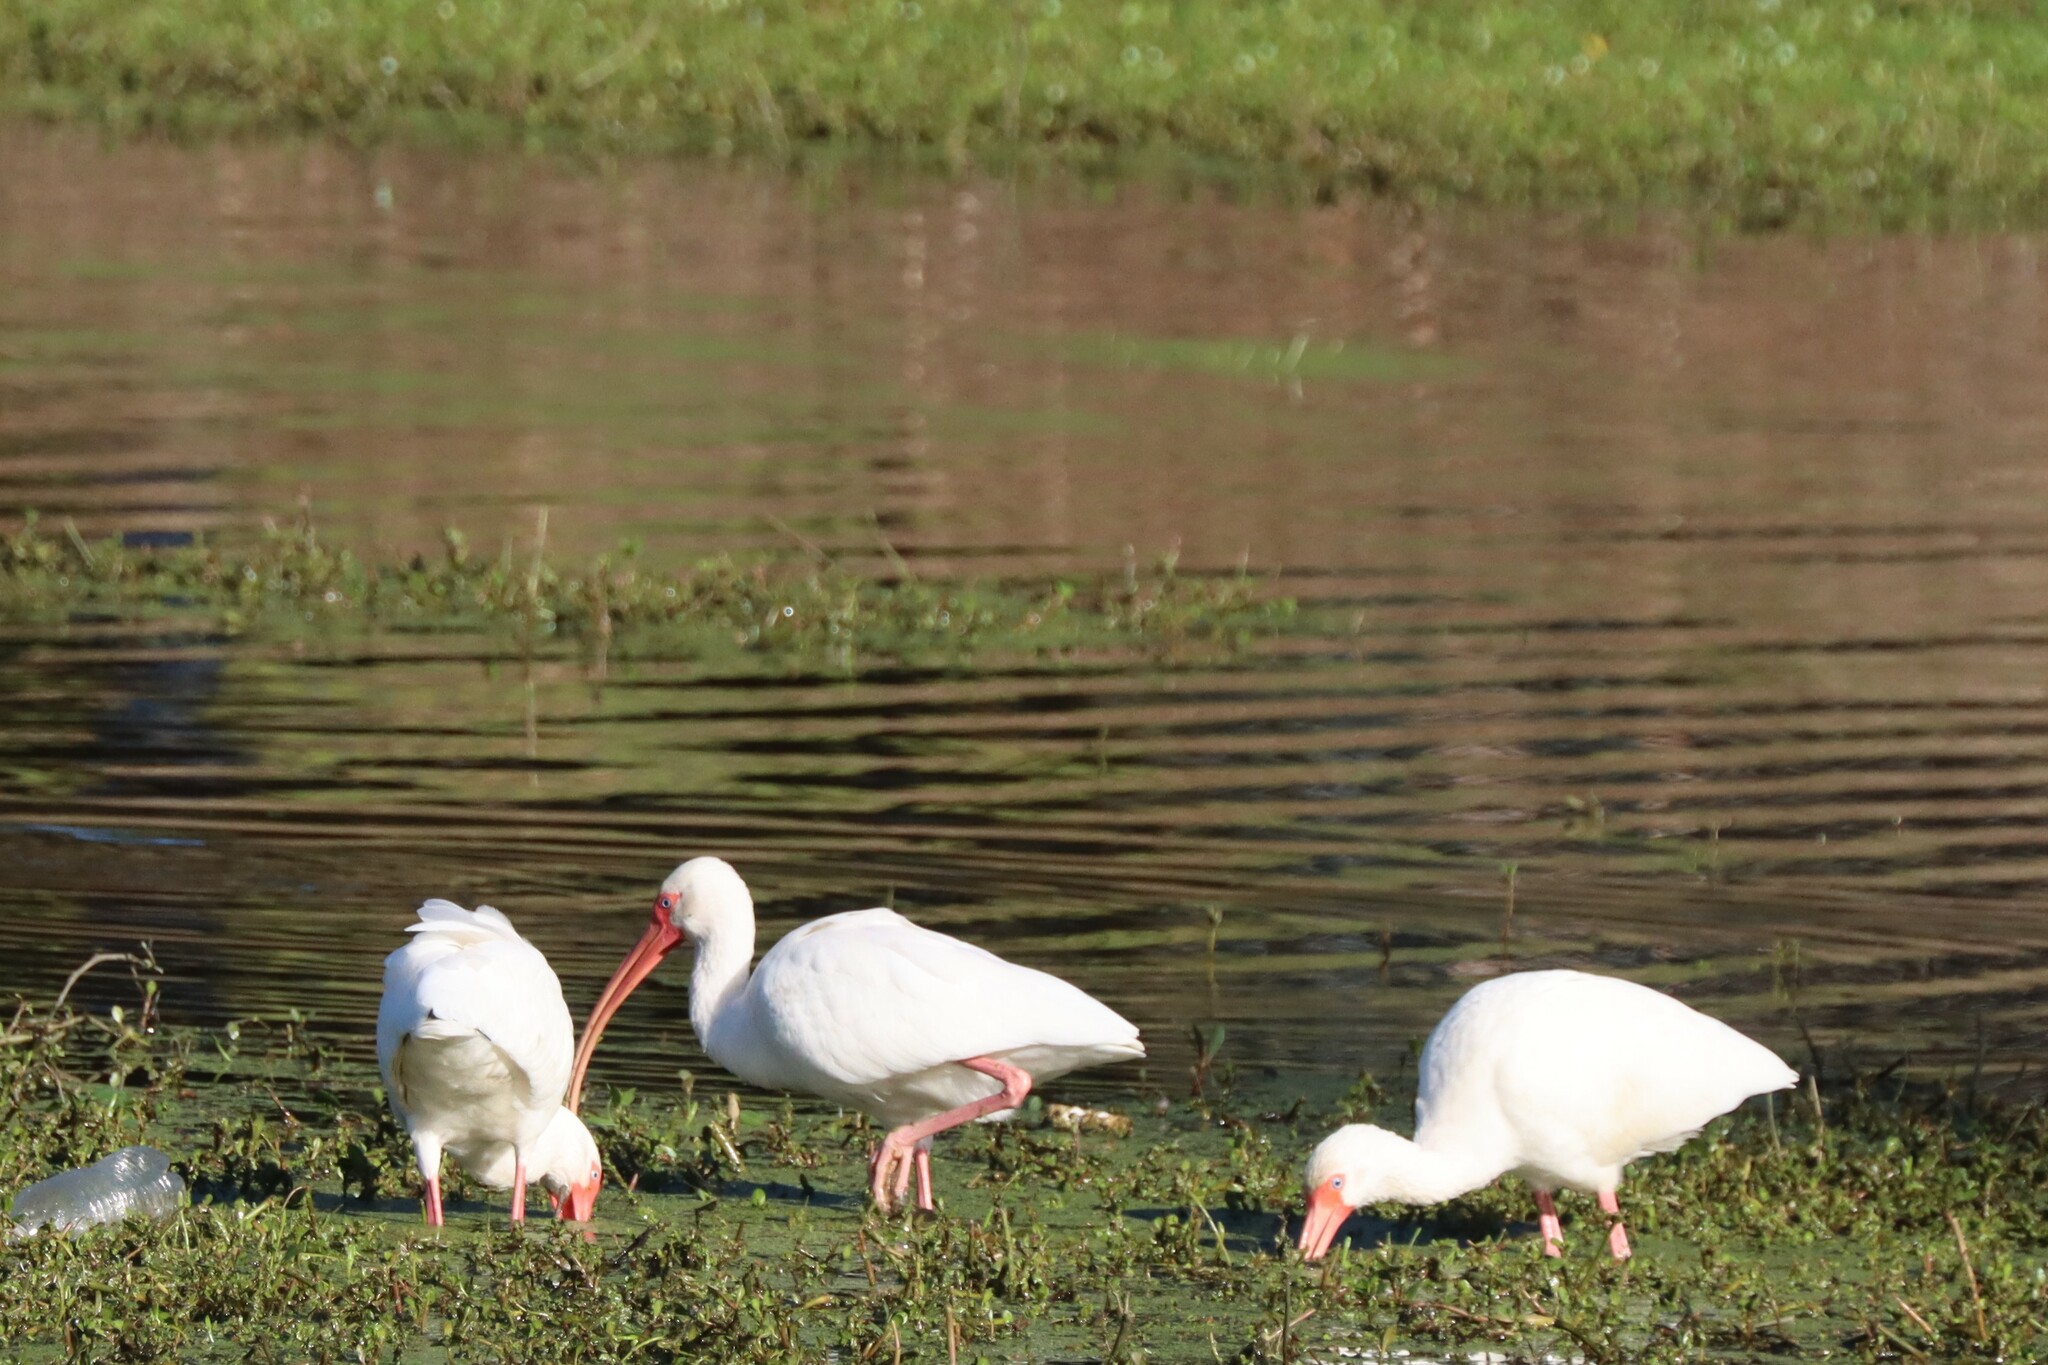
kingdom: Animalia
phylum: Chordata
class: Aves
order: Pelecaniformes
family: Threskiornithidae
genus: Eudocimus
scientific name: Eudocimus albus
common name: White ibis
